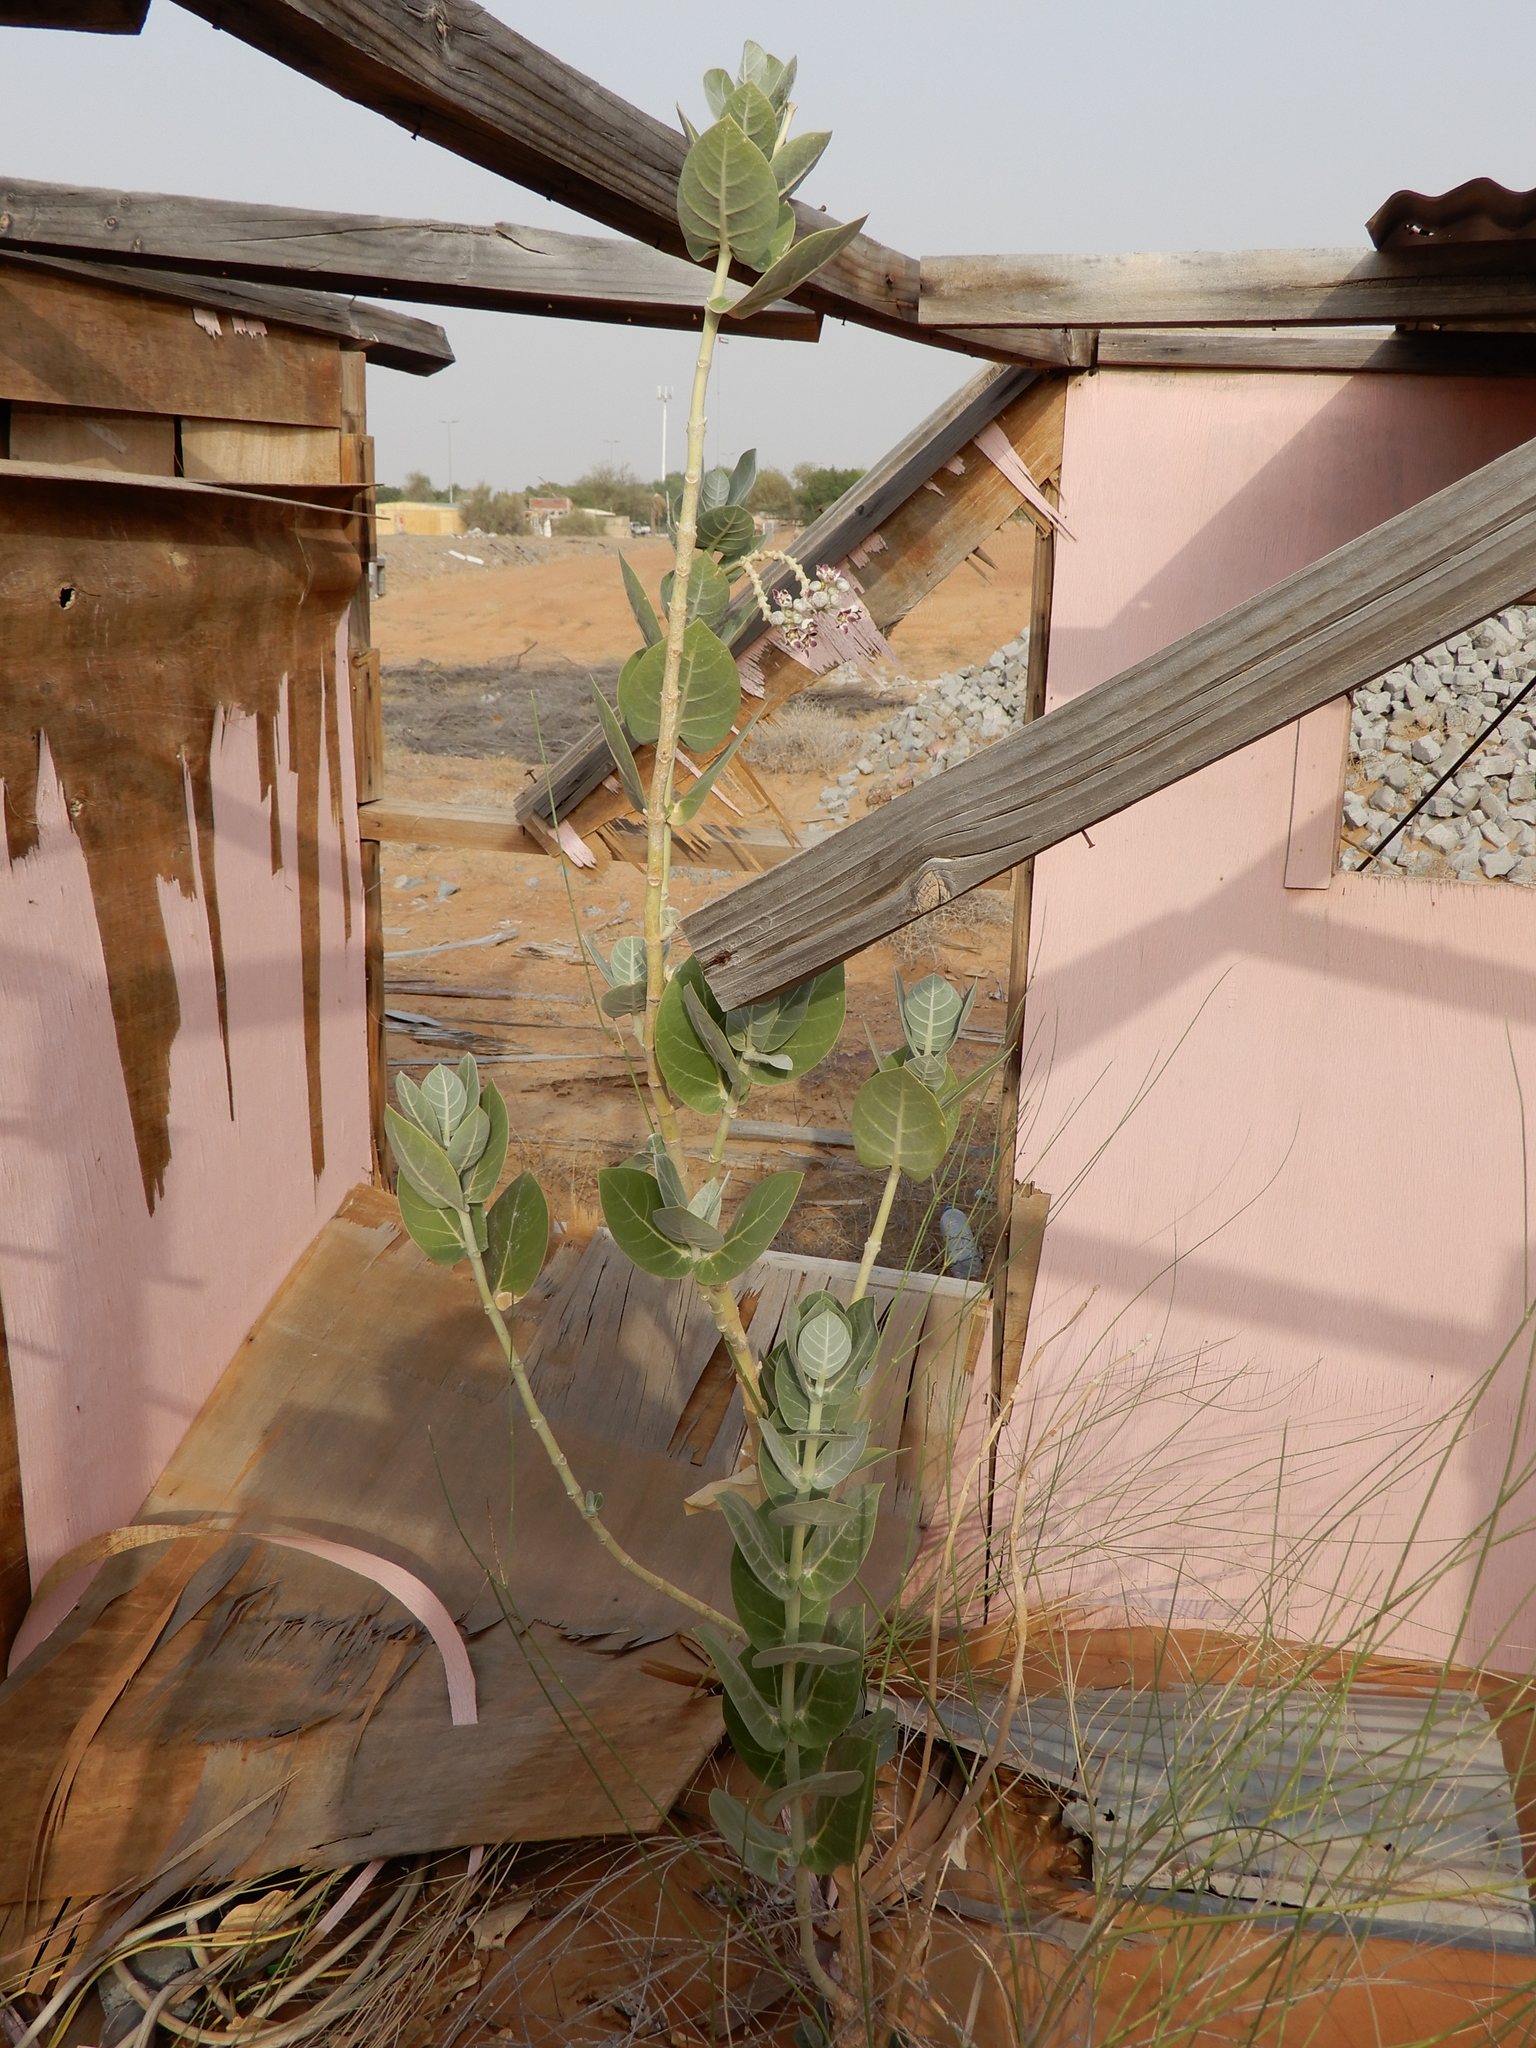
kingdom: Plantae
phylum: Tracheophyta
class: Magnoliopsida
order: Gentianales
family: Apocynaceae
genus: Calotropis
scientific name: Calotropis procera
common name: Roostertree
